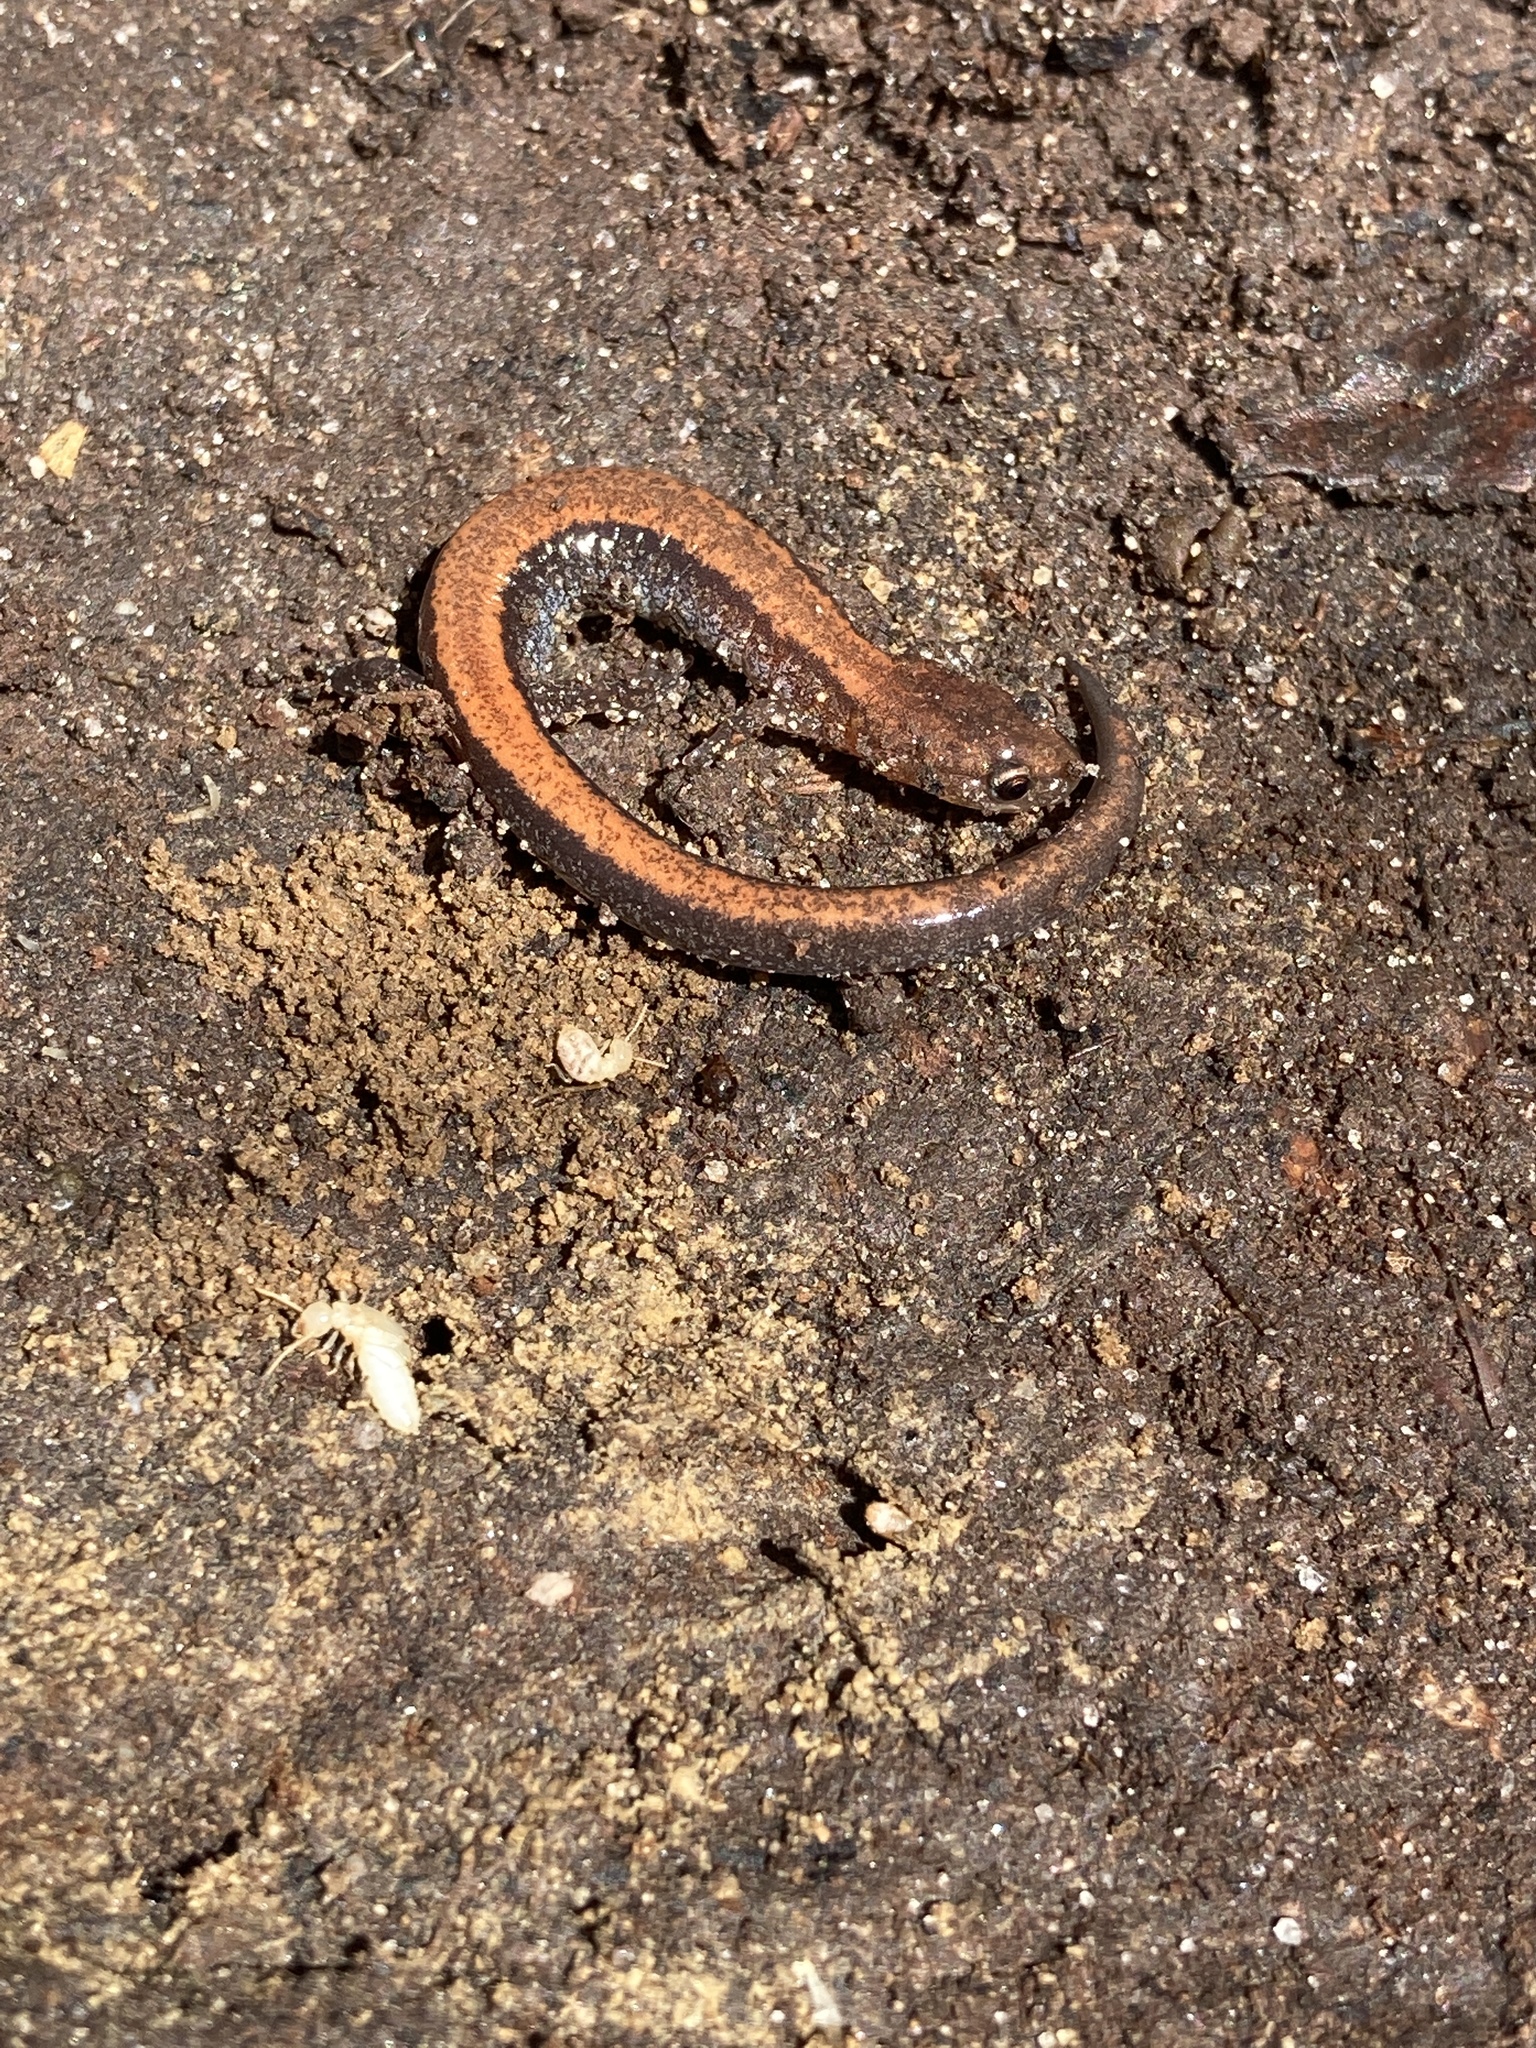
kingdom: Animalia
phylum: Chordata
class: Amphibia
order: Caudata
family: Plethodontidae
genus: Plethodon
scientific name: Plethodon cinereus
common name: Redback salamander
